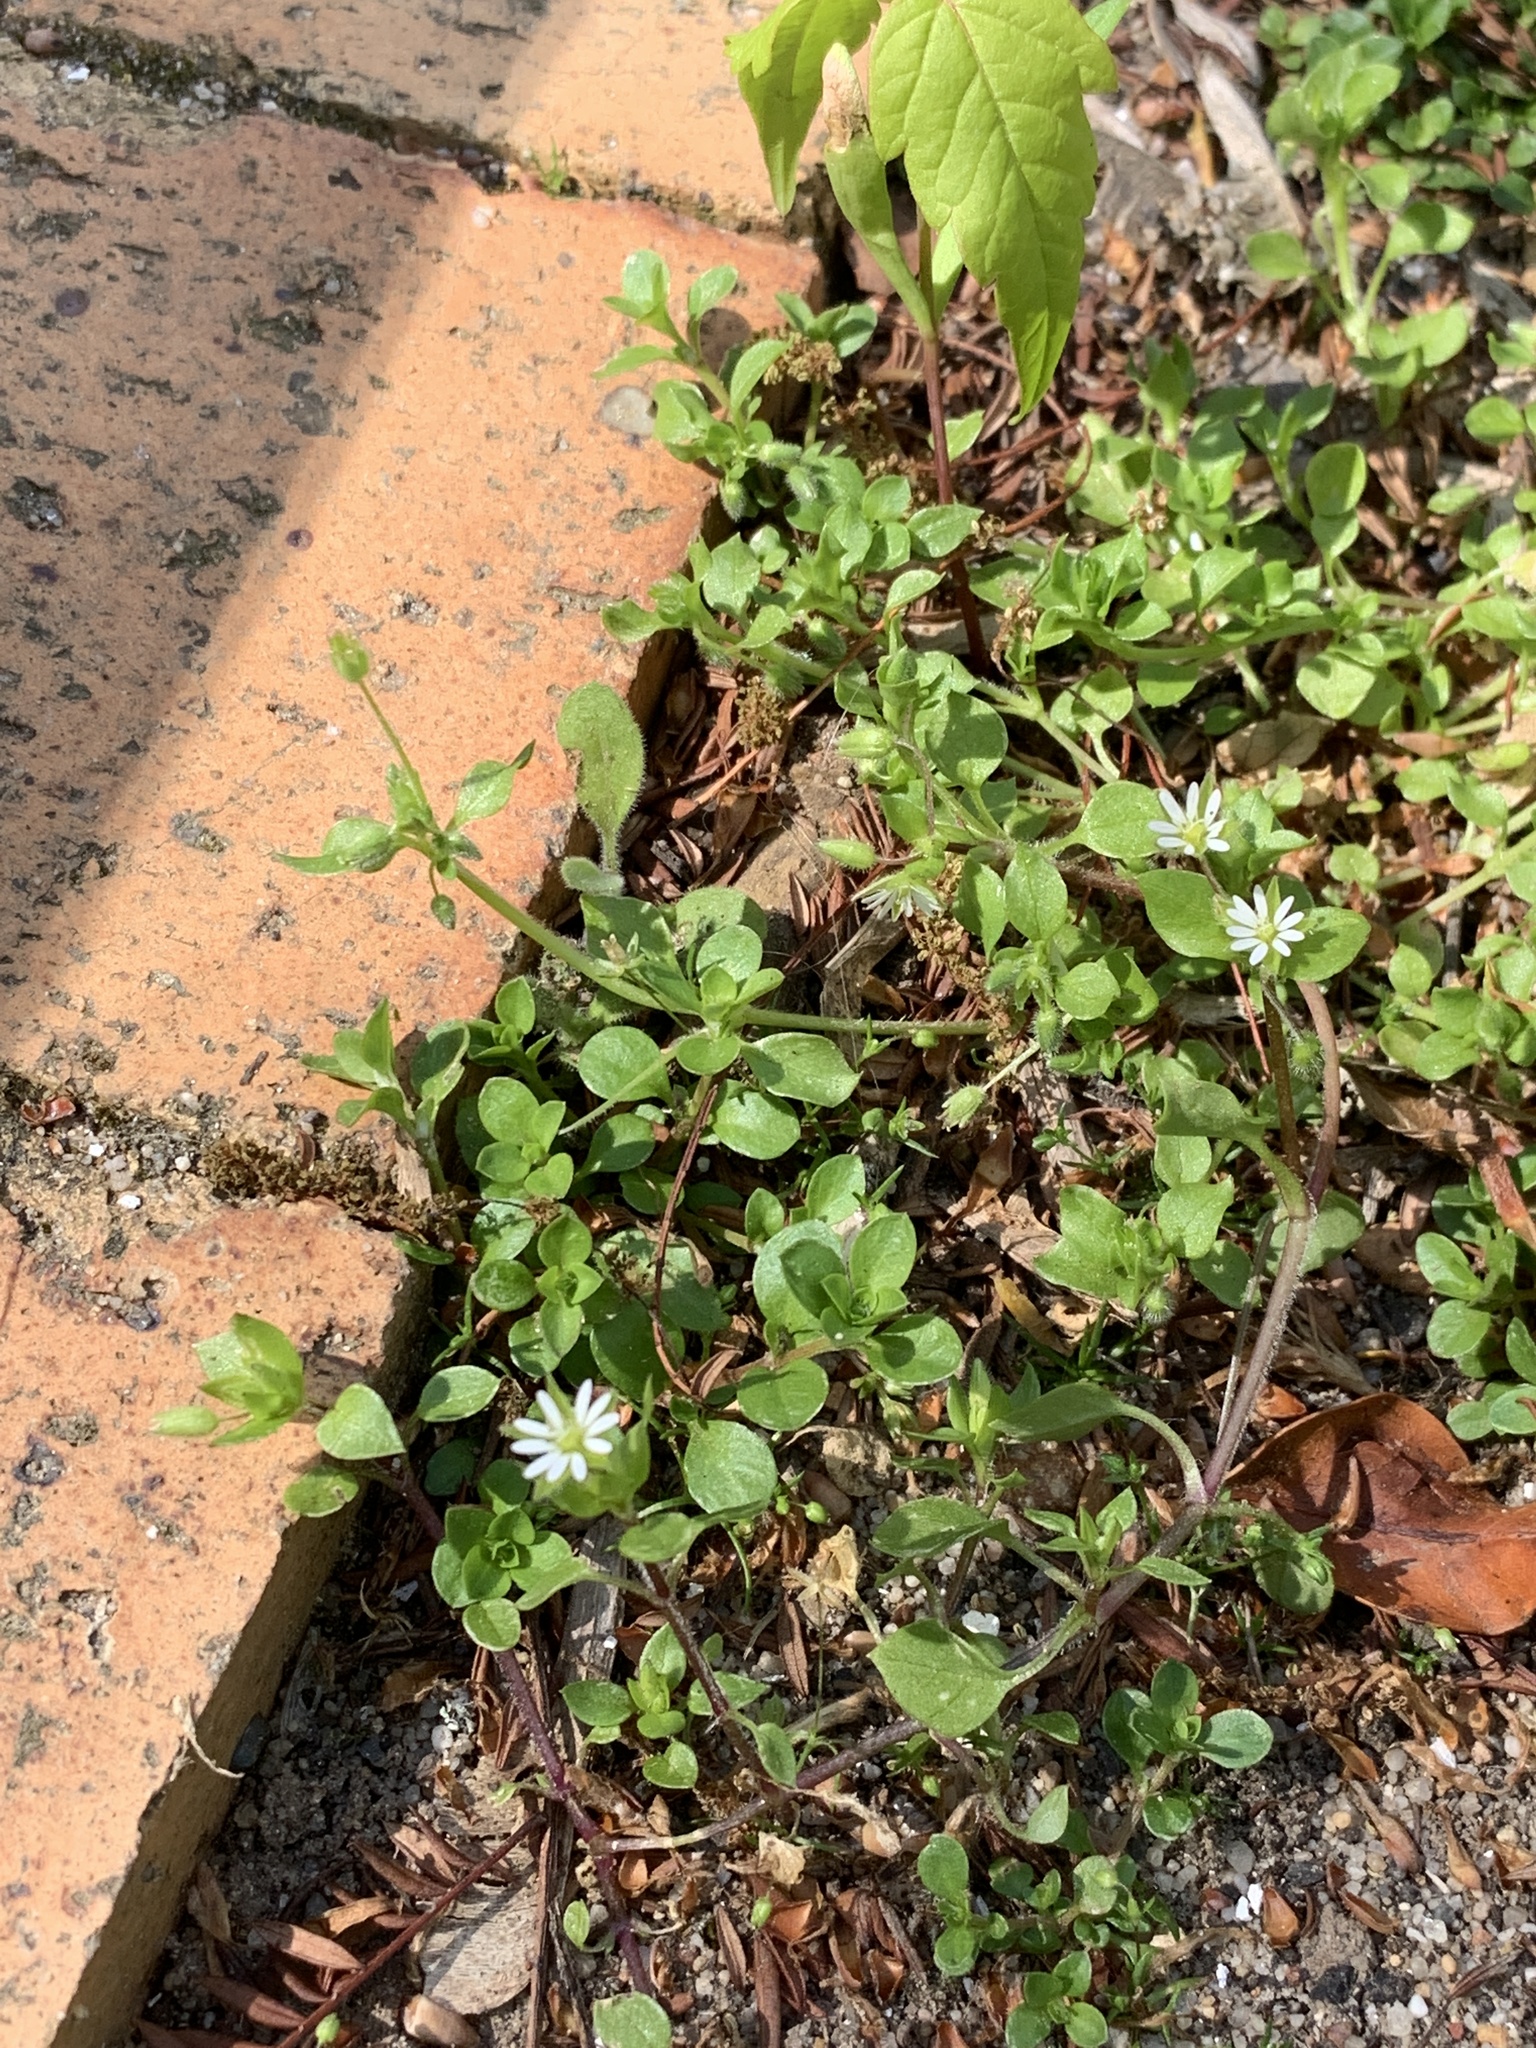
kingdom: Plantae
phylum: Tracheophyta
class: Magnoliopsida
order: Caryophyllales
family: Caryophyllaceae
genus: Stellaria
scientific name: Stellaria media
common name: Common chickweed
